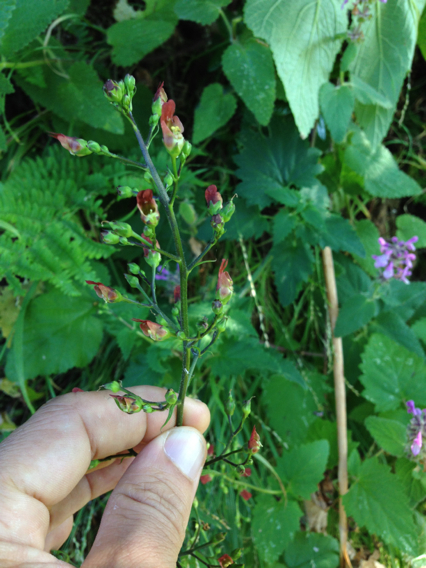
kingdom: Plantae
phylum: Tracheophyta
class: Magnoliopsida
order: Lamiales
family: Scrophulariaceae
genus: Scrophularia
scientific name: Scrophularia californica
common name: California figwort
